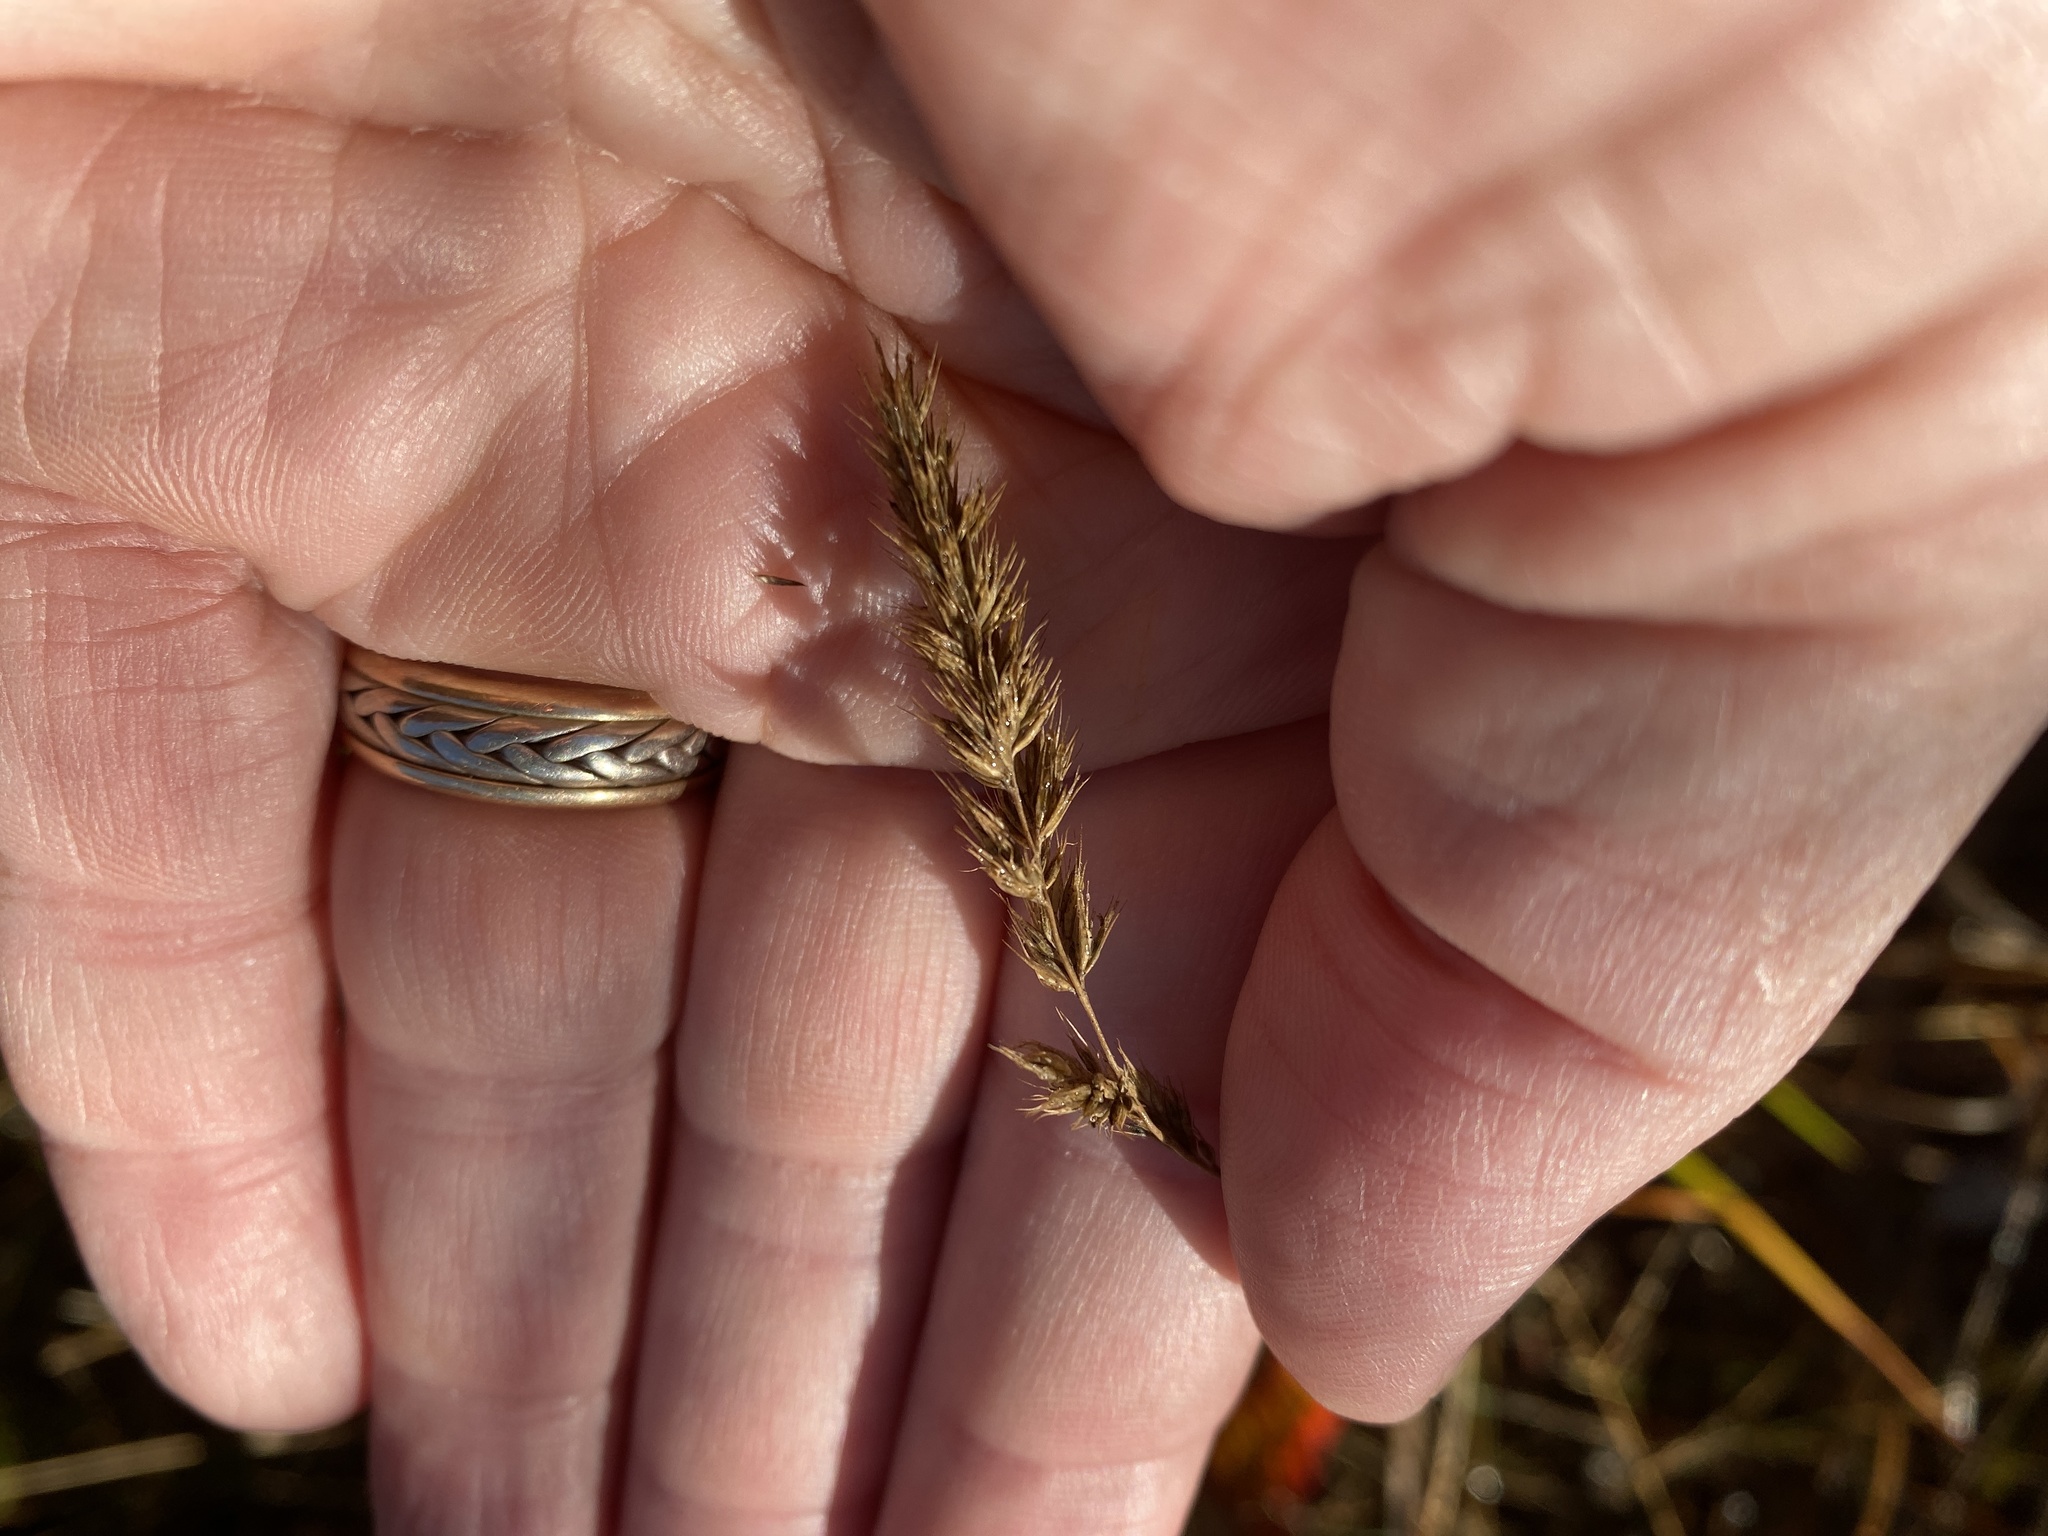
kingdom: Plantae
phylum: Tracheophyta
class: Liliopsida
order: Poales
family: Poaceae
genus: Muhlenbergia
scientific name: Muhlenbergia glomerata
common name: Bog muhly
